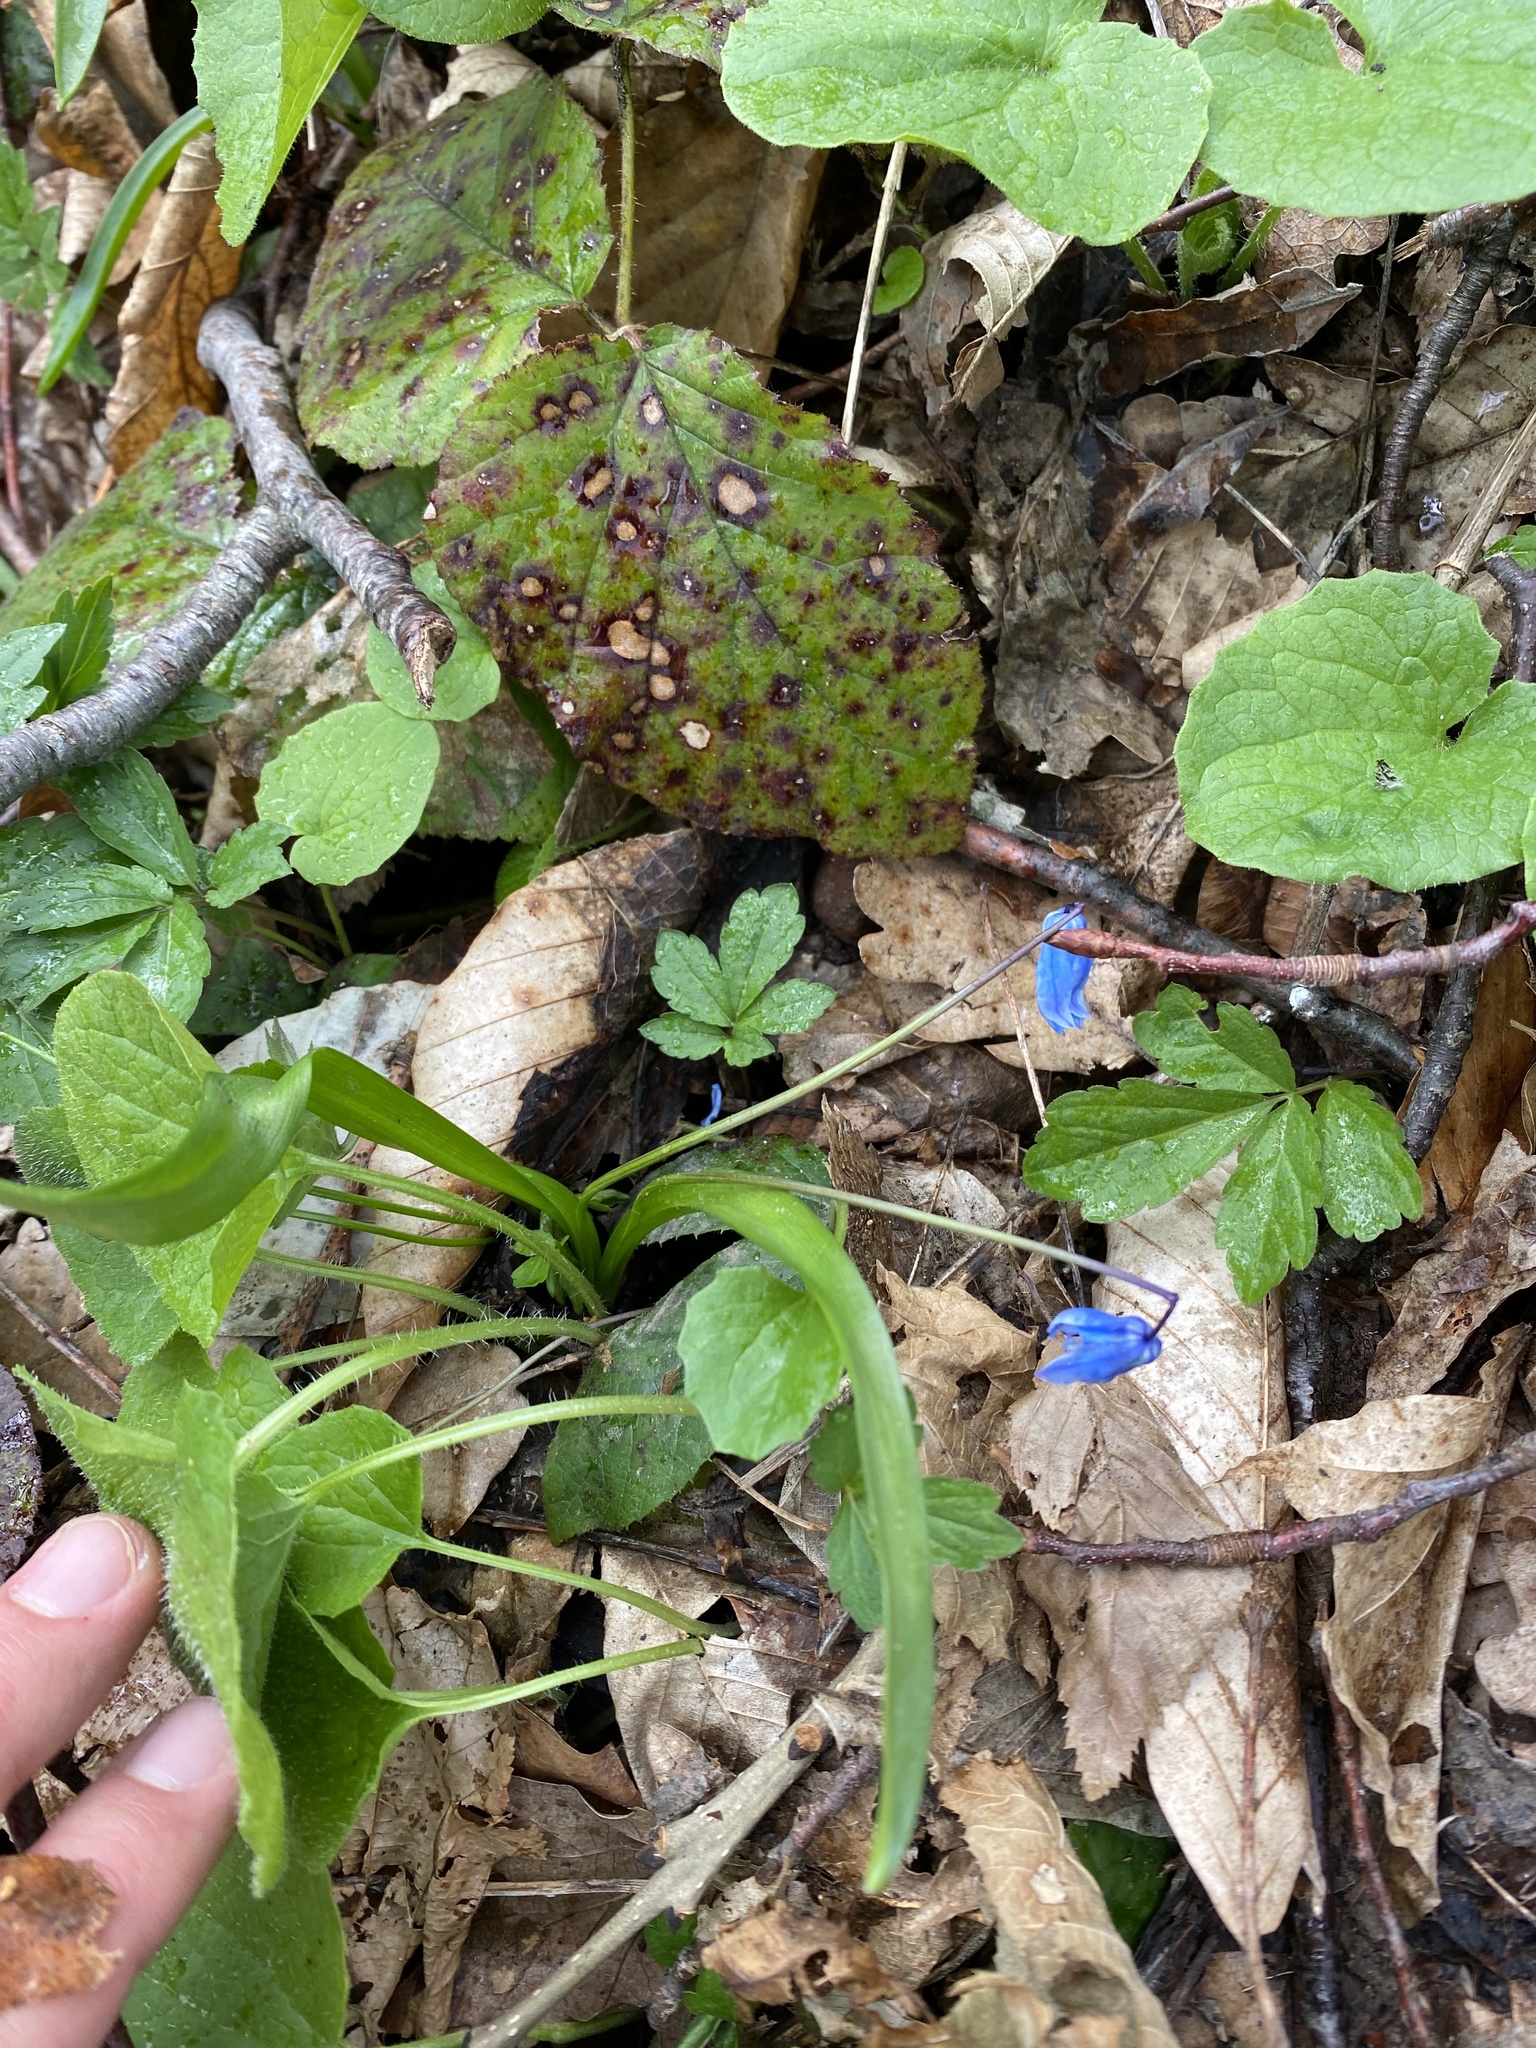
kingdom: Plantae
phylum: Tracheophyta
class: Liliopsida
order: Asparagales
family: Asparagaceae
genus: Scilla
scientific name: Scilla siberica
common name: Siberian squill
